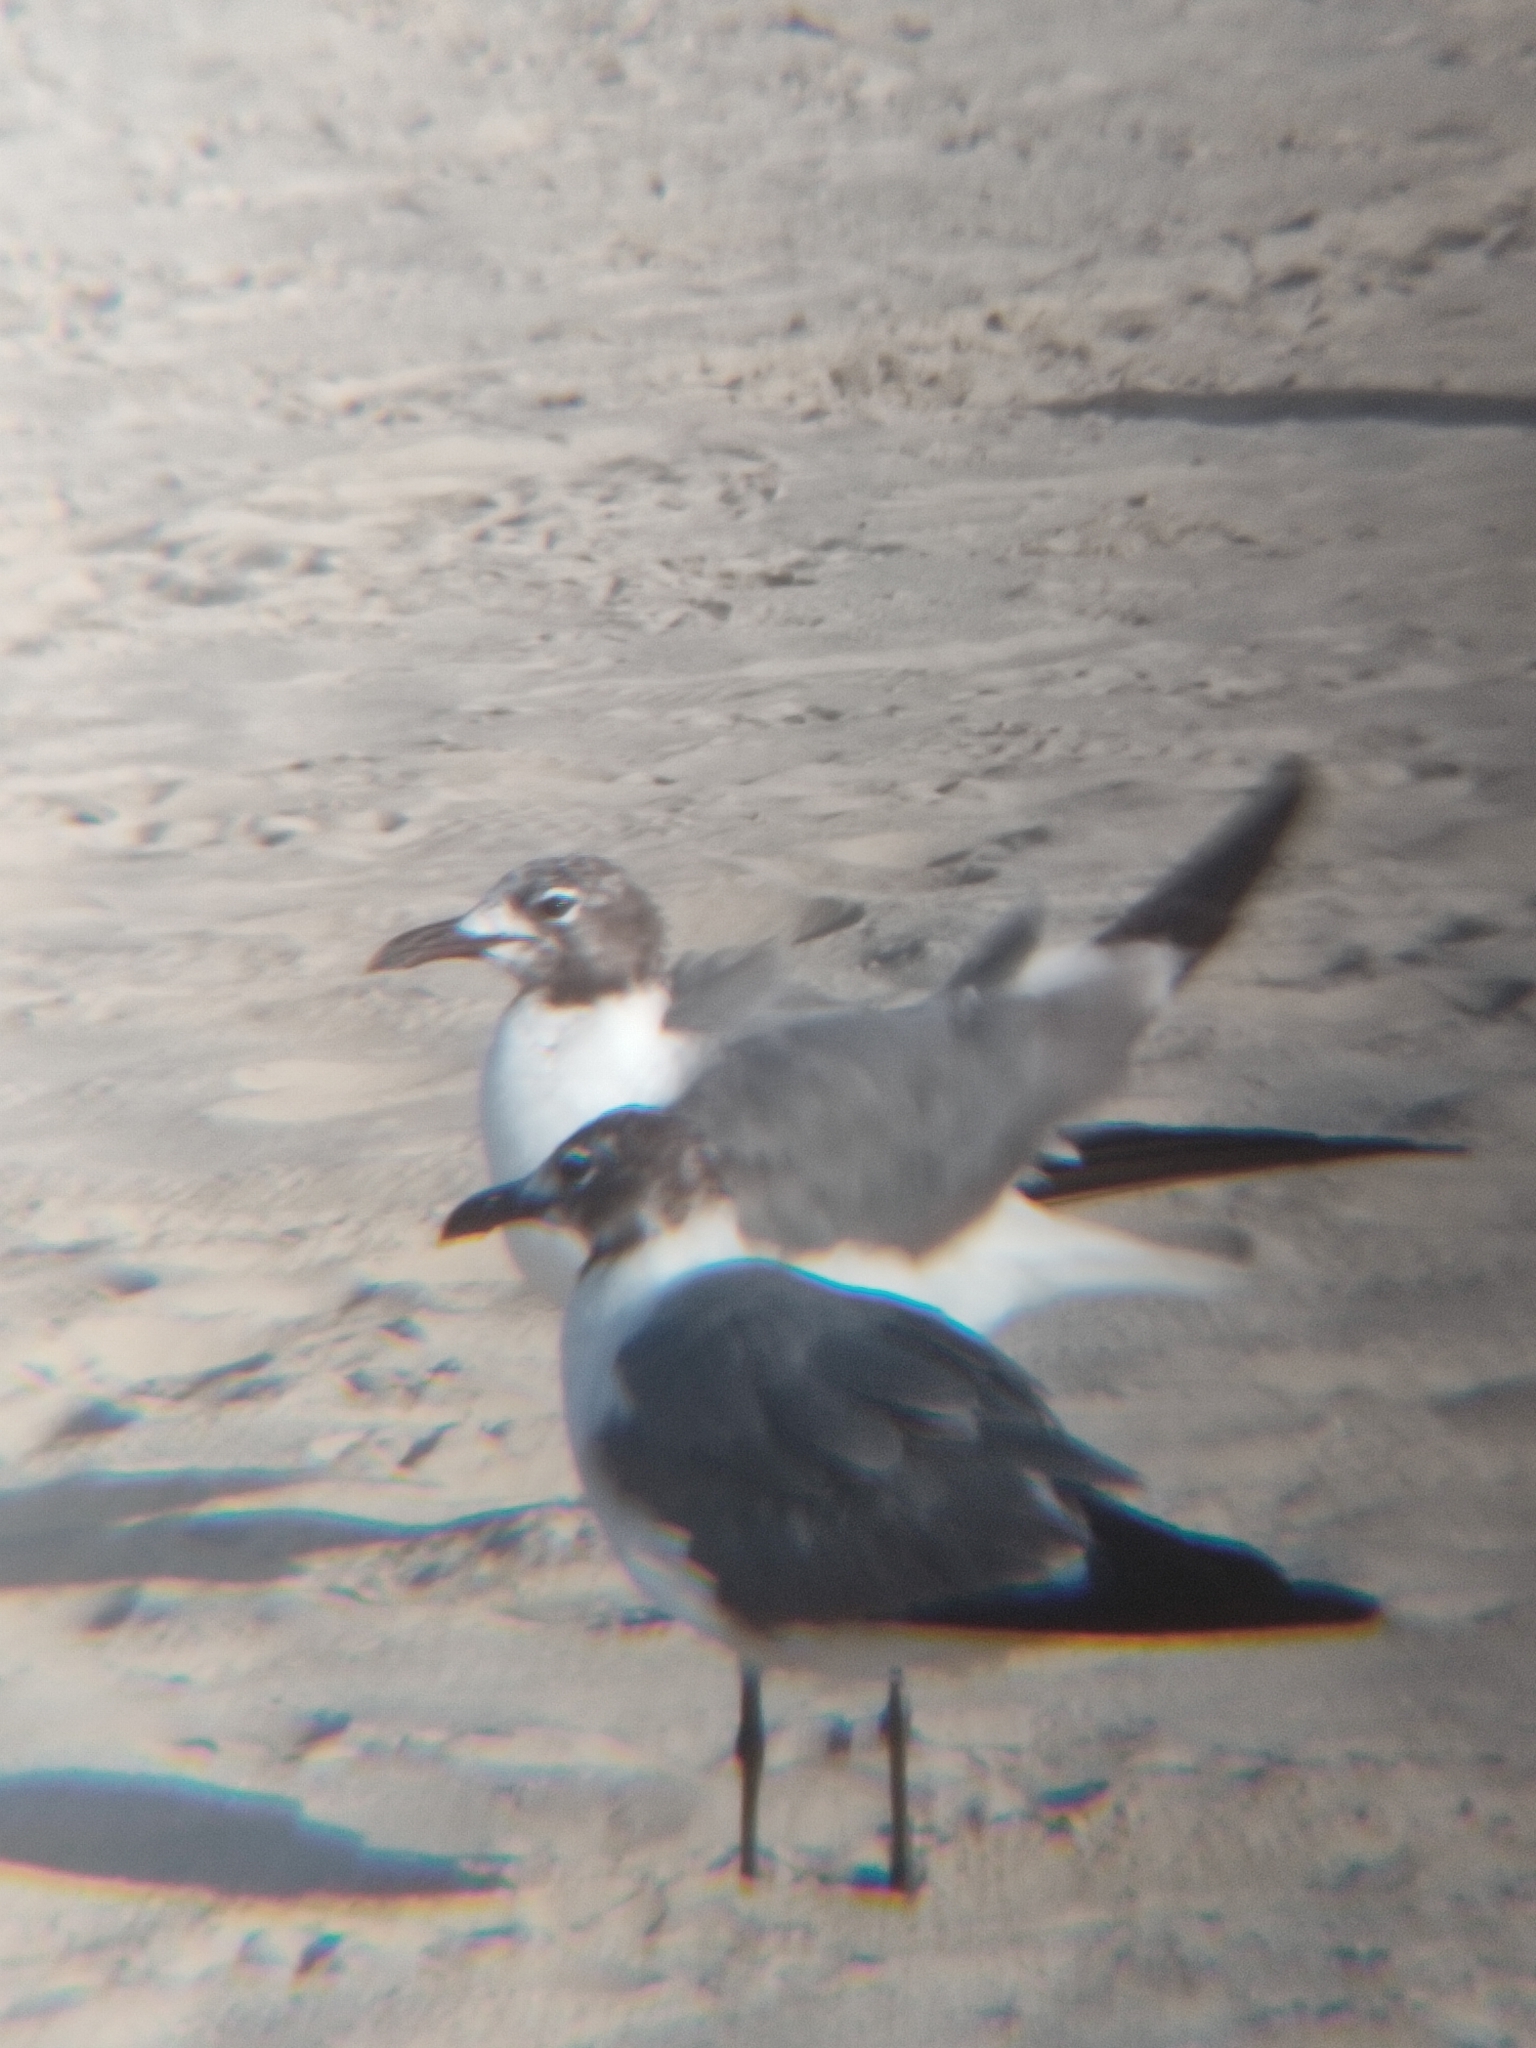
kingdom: Animalia
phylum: Chordata
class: Aves
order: Charadriiformes
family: Laridae
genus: Leucophaeus
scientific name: Leucophaeus atricilla
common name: Laughing gull
